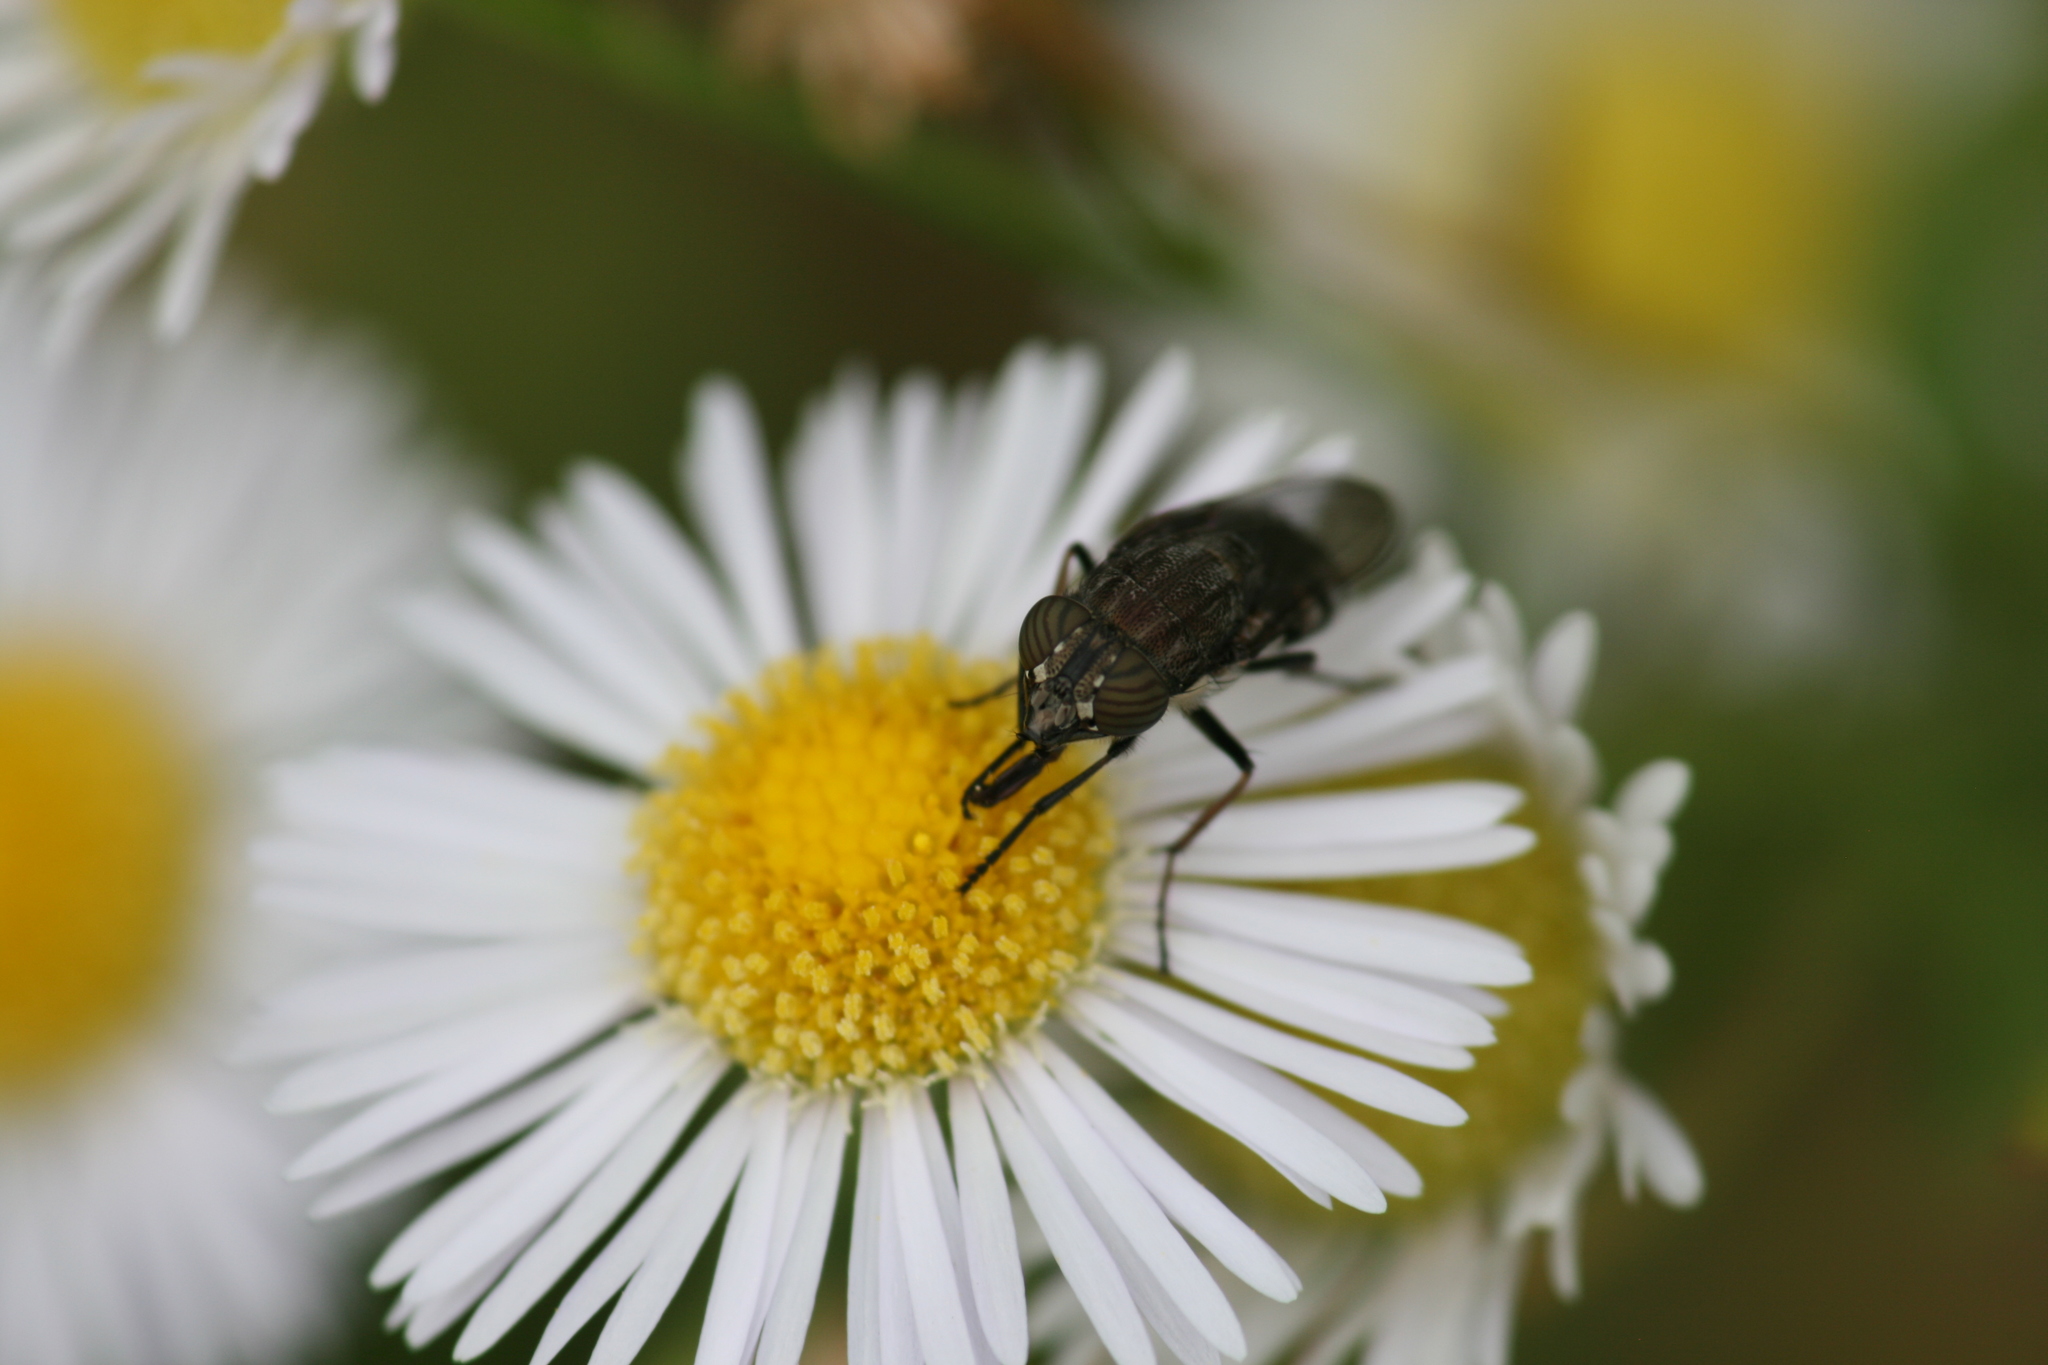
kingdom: Animalia
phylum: Arthropoda
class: Insecta
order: Diptera
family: Calliphoridae
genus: Stomorhina
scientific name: Stomorhina lunata
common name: Locust blowfly
